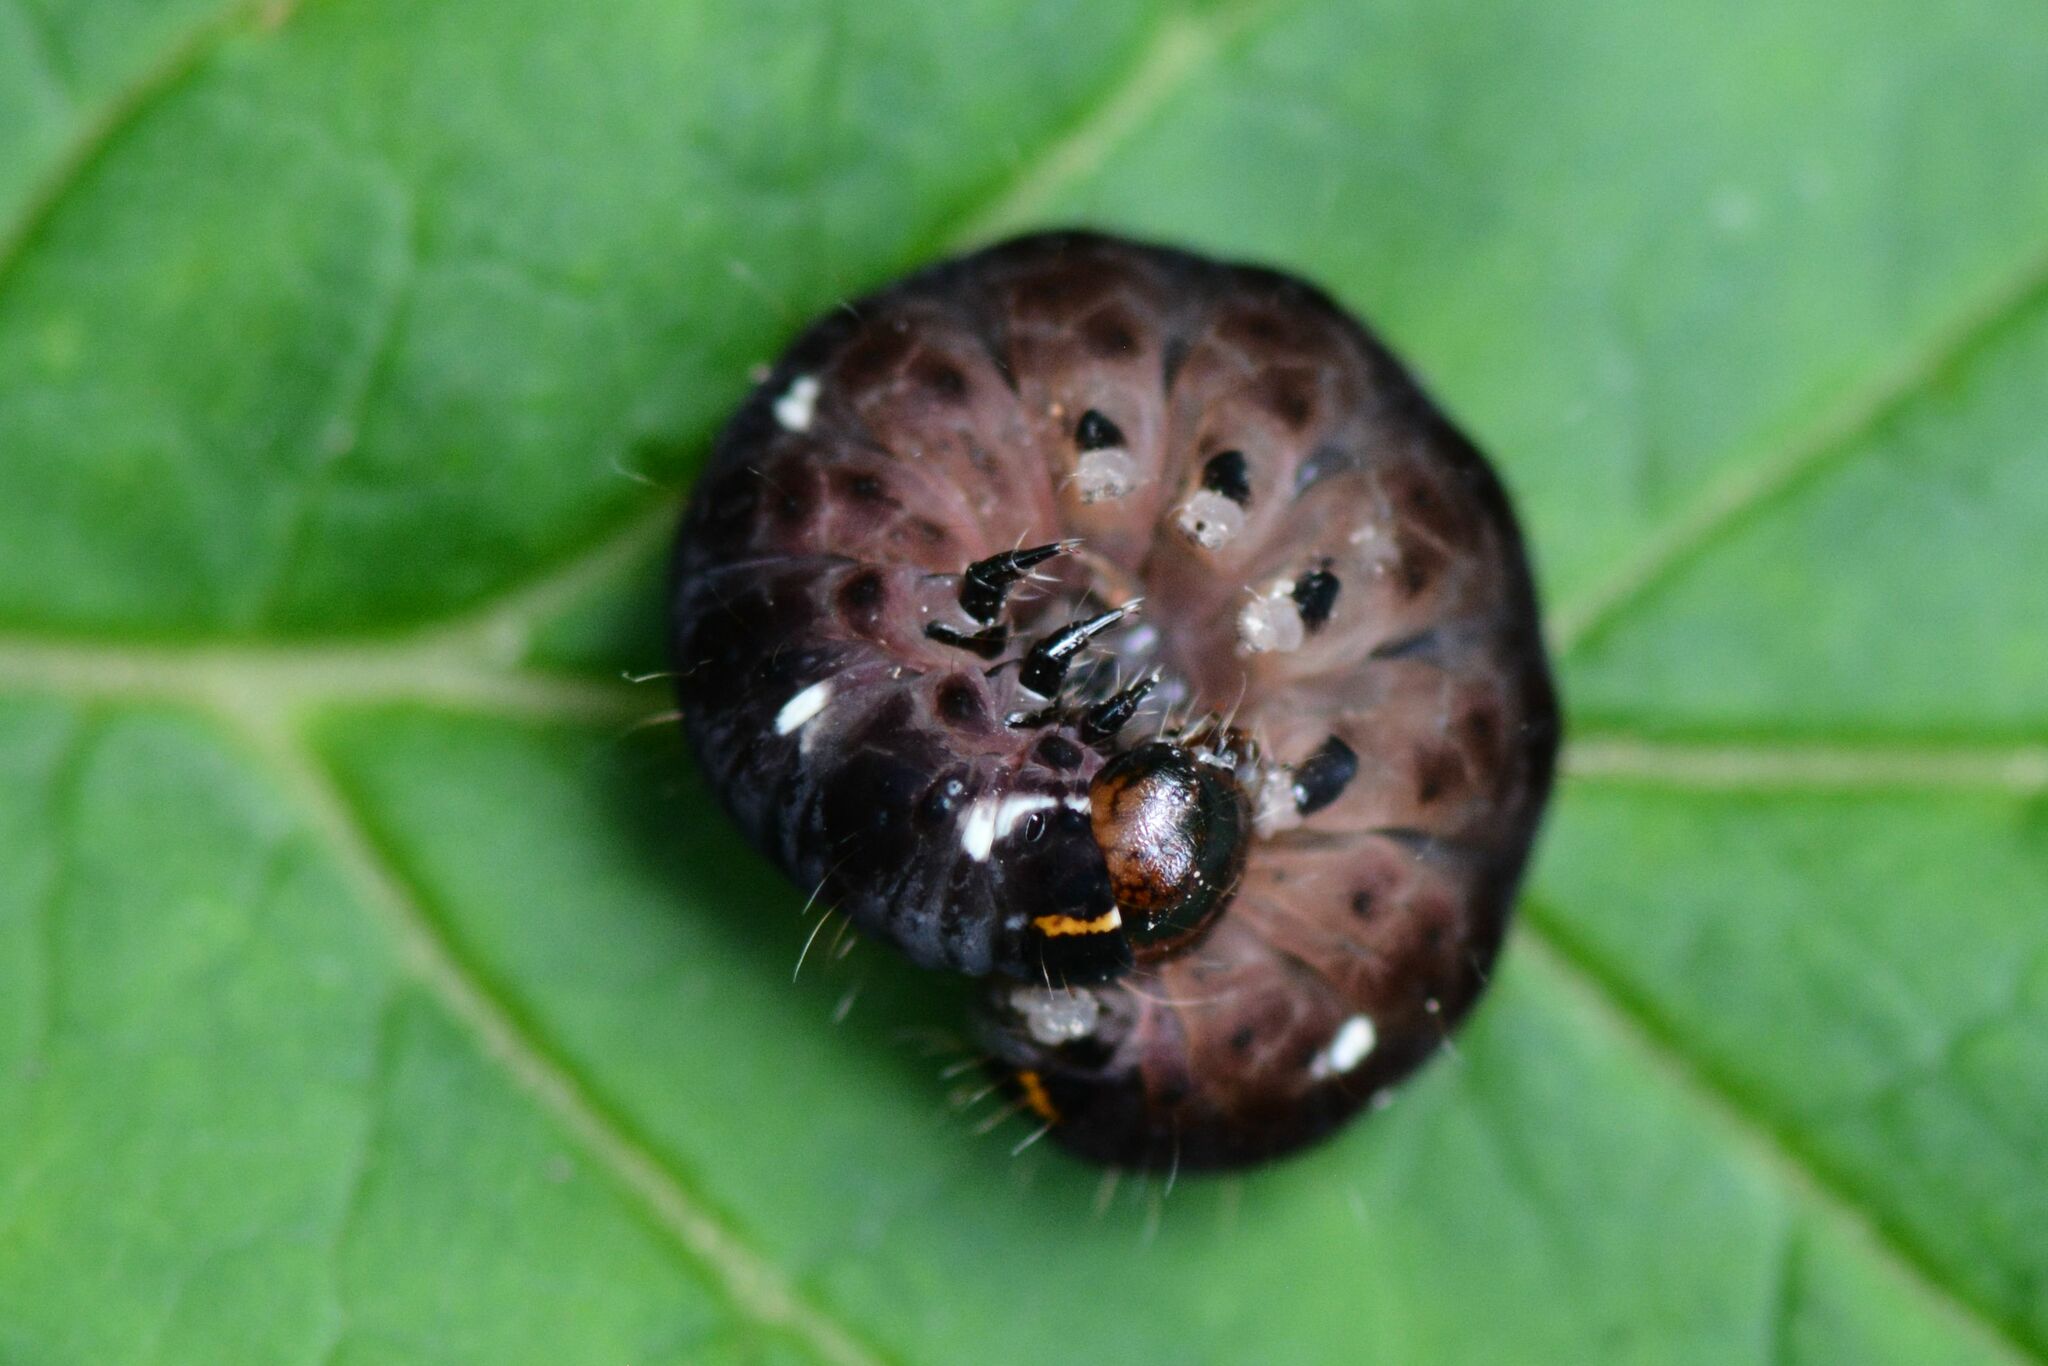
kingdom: Animalia
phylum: Arthropoda
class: Insecta
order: Lepidoptera
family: Noctuidae
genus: Eupsilia
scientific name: Eupsilia transversa
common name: Satellite
